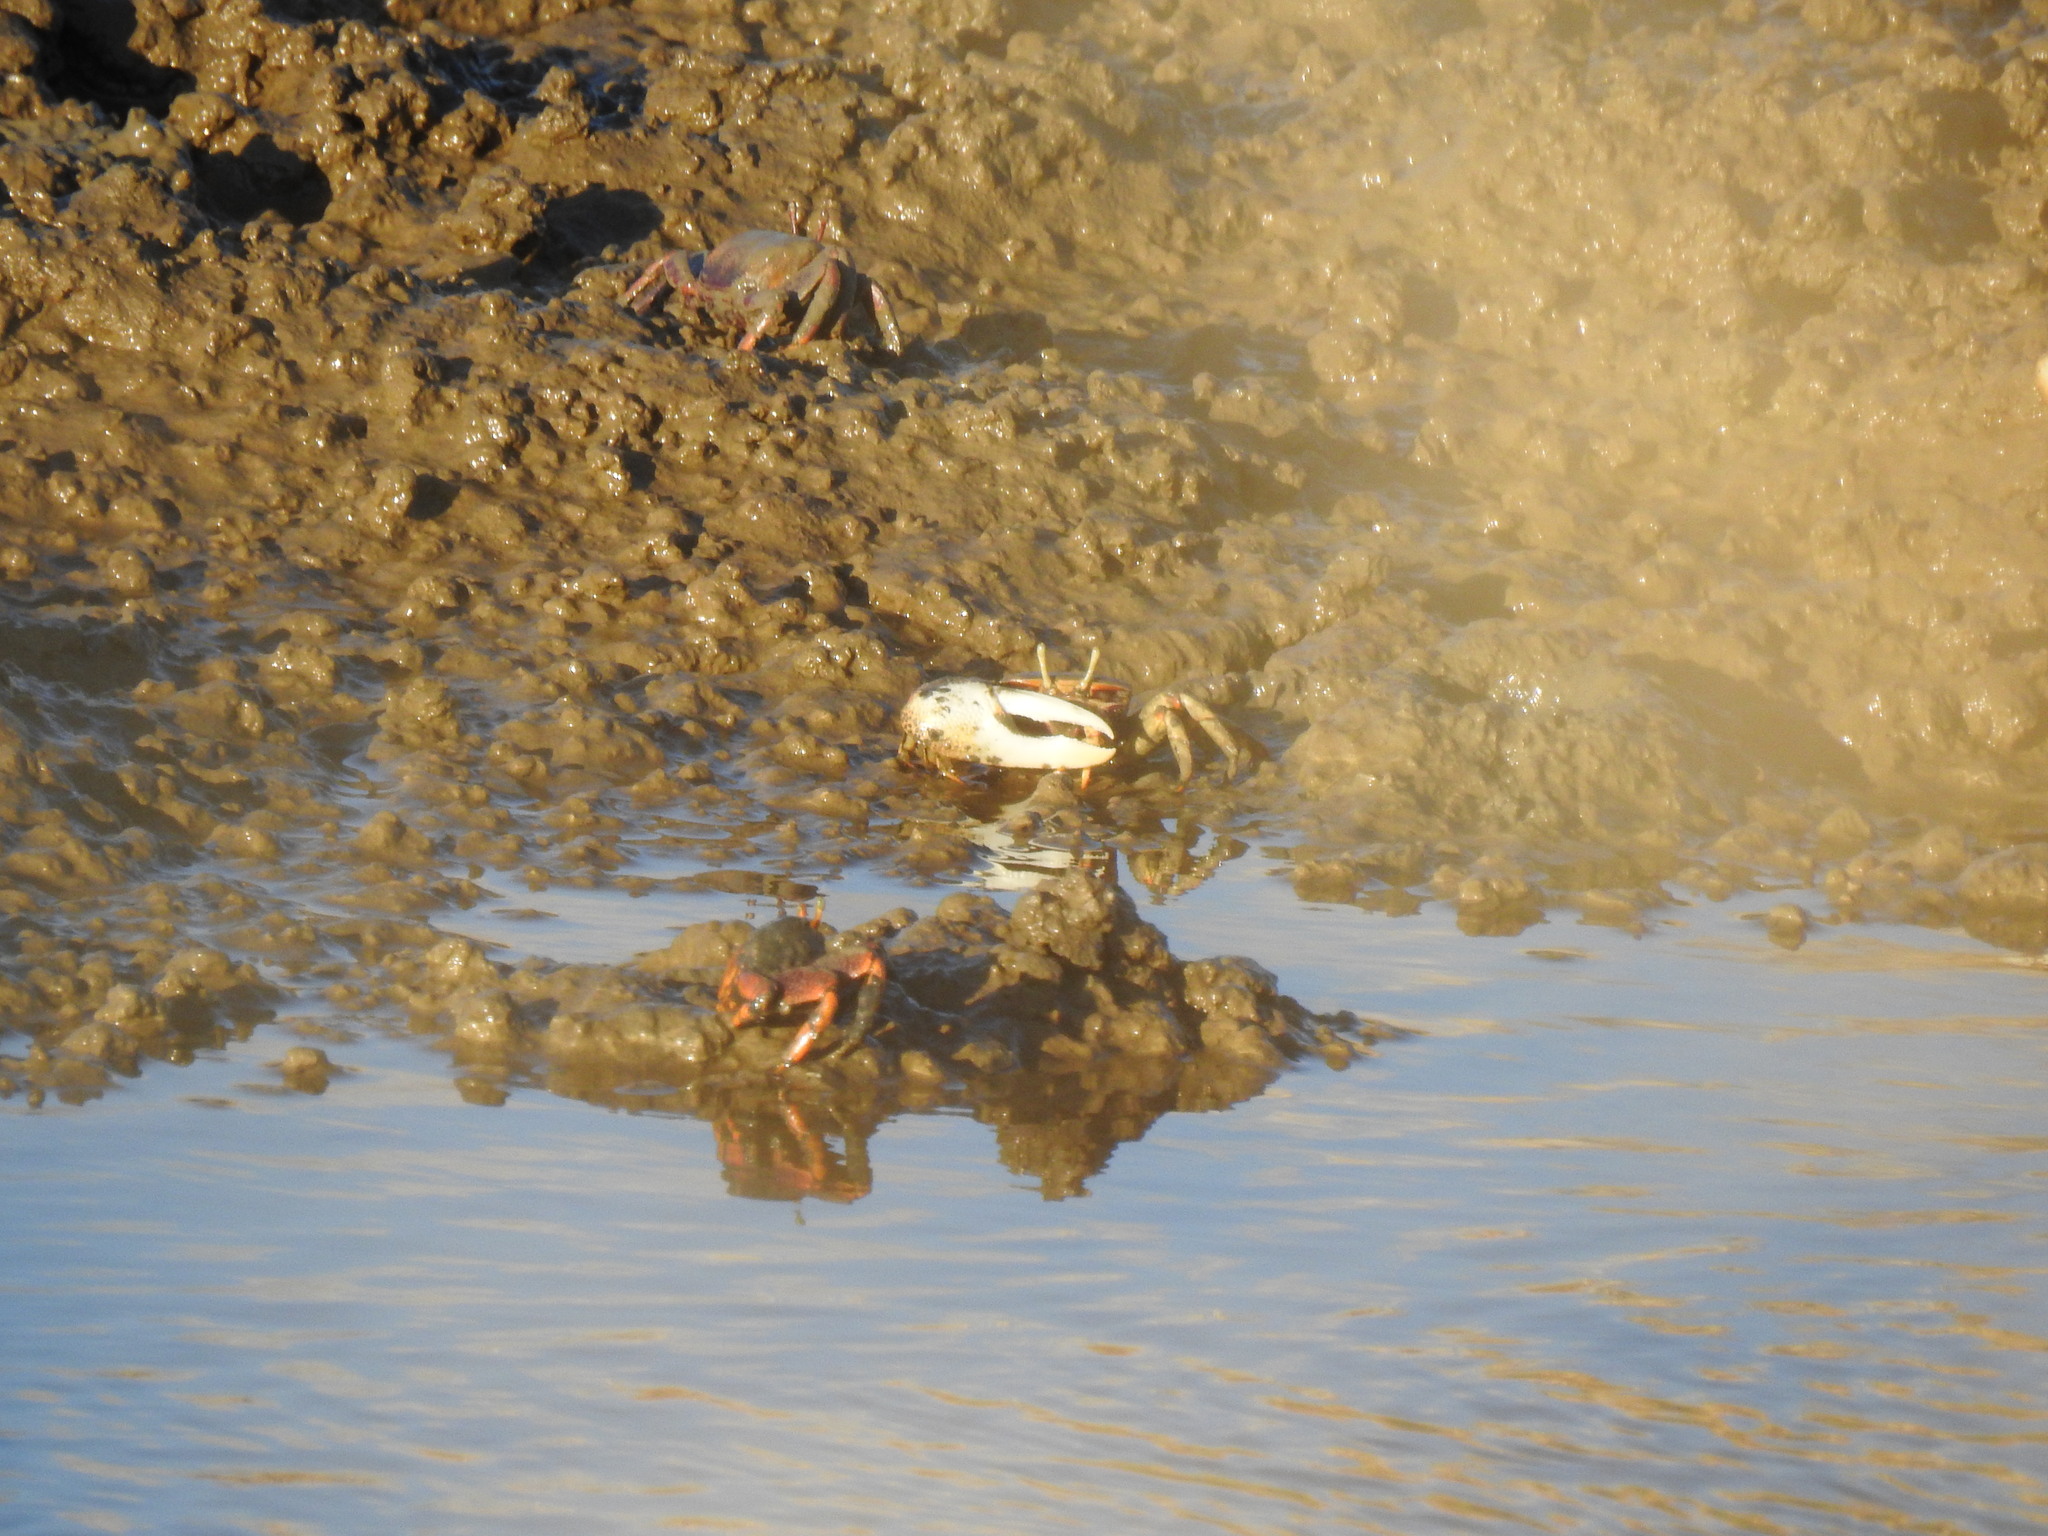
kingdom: Animalia
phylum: Arthropoda
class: Malacostraca
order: Decapoda
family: Ocypodidae
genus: Afruca
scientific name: Afruca tangeri
